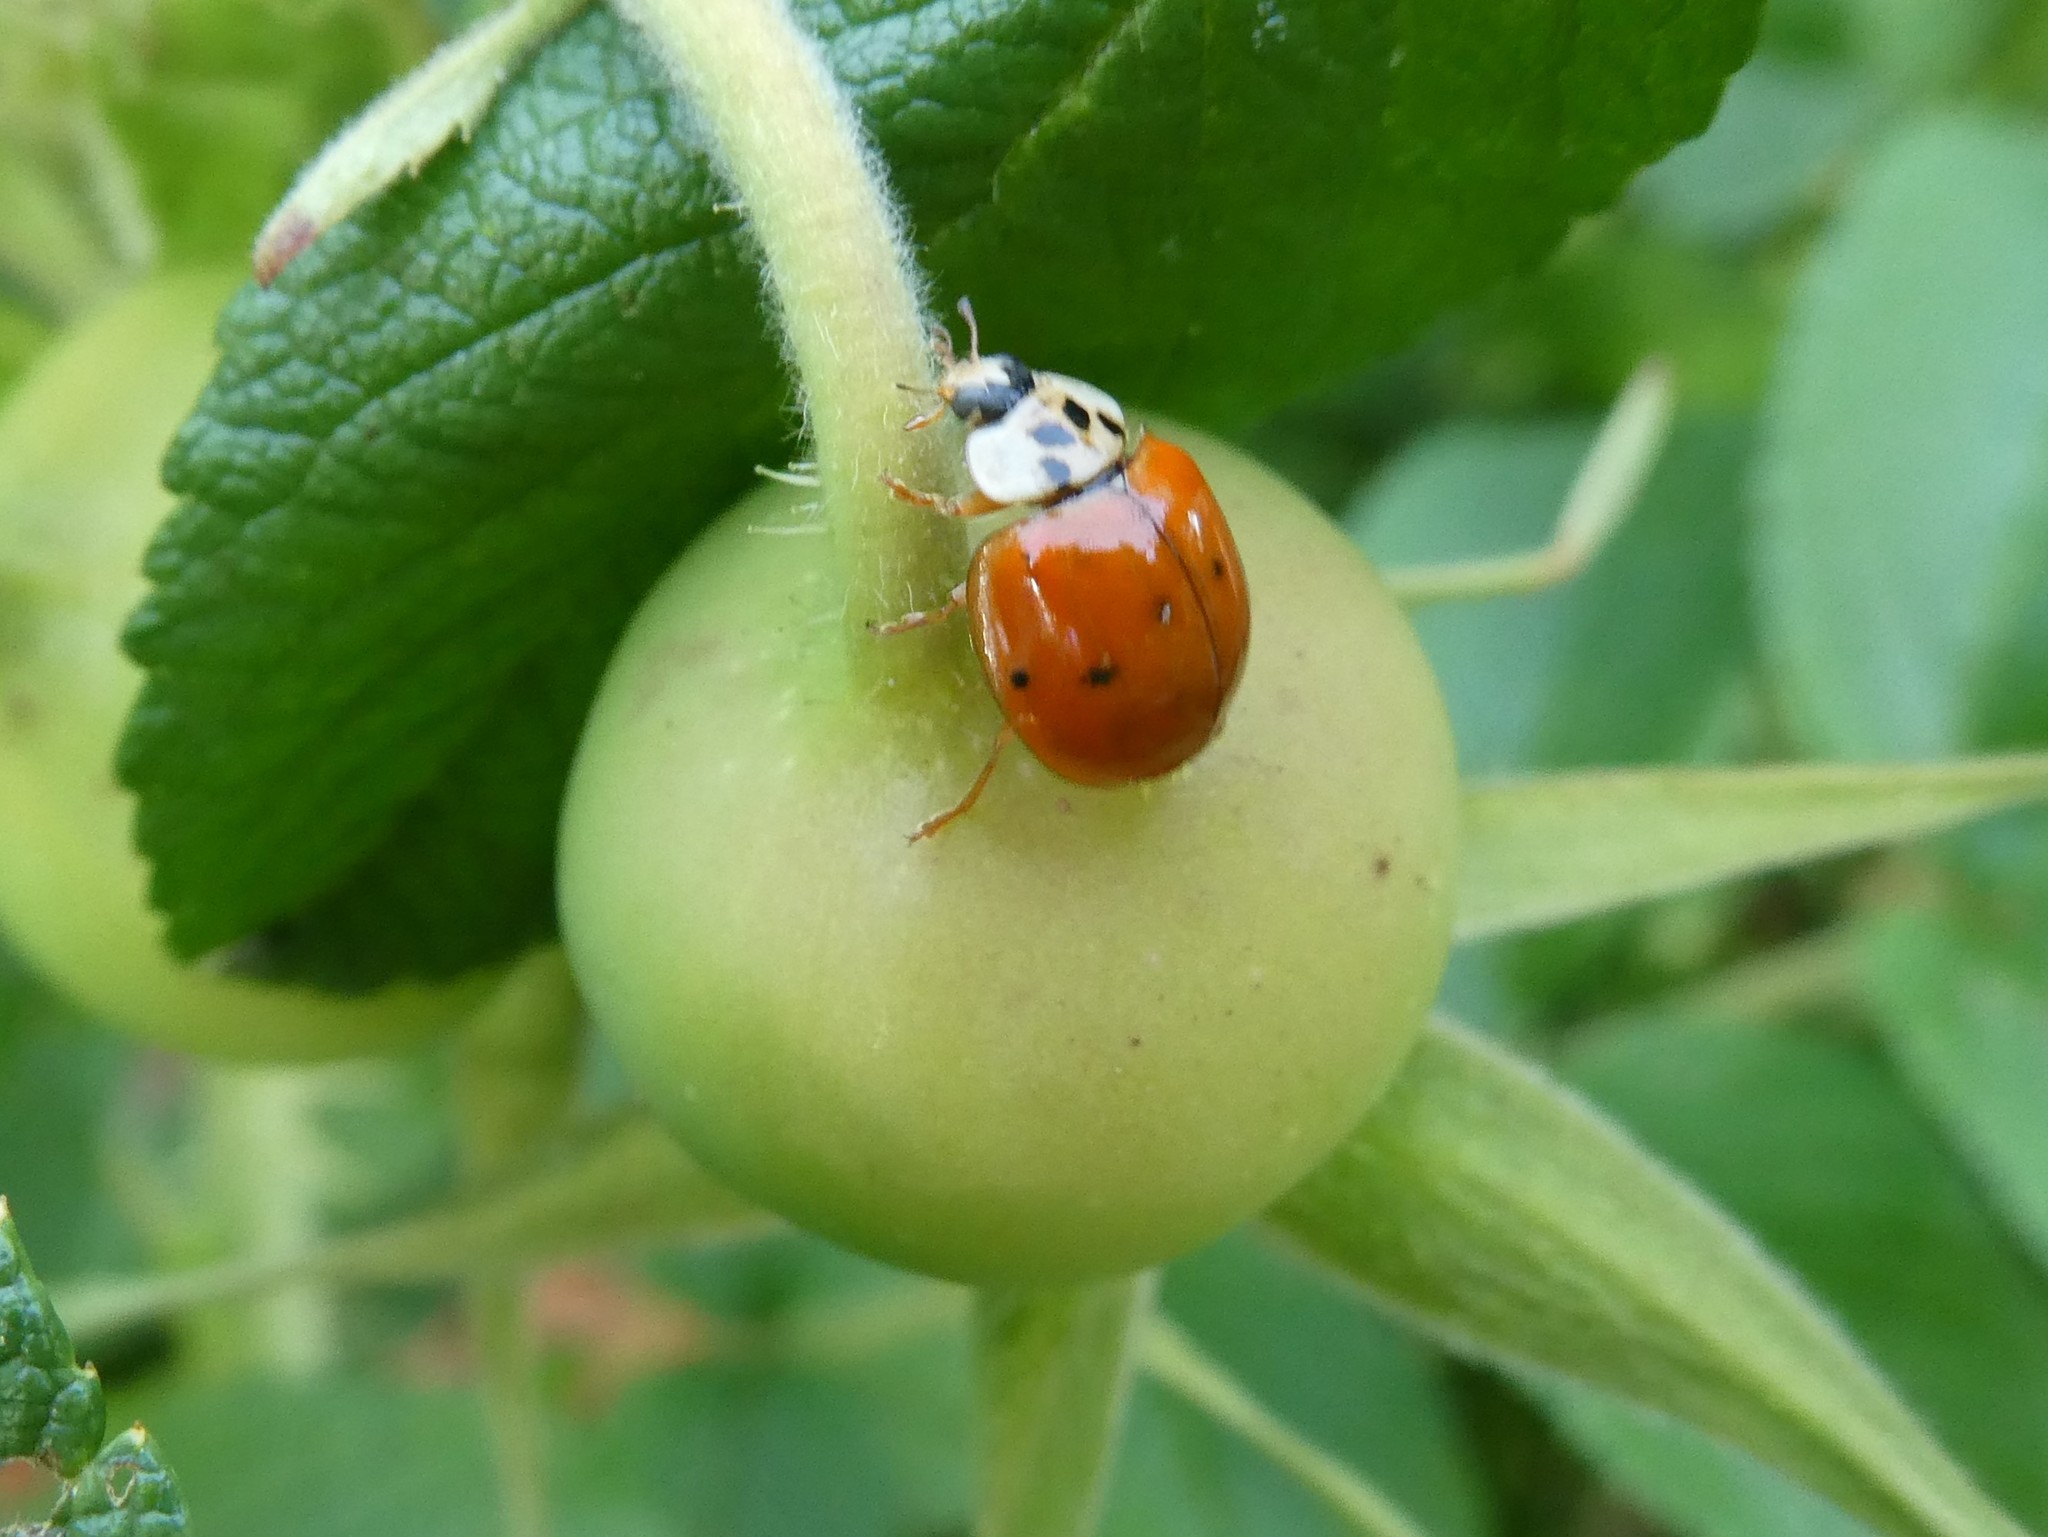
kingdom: Animalia
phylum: Arthropoda
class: Insecta
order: Coleoptera
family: Coccinellidae
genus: Harmonia
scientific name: Harmonia axyridis
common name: Harlequin ladybird
